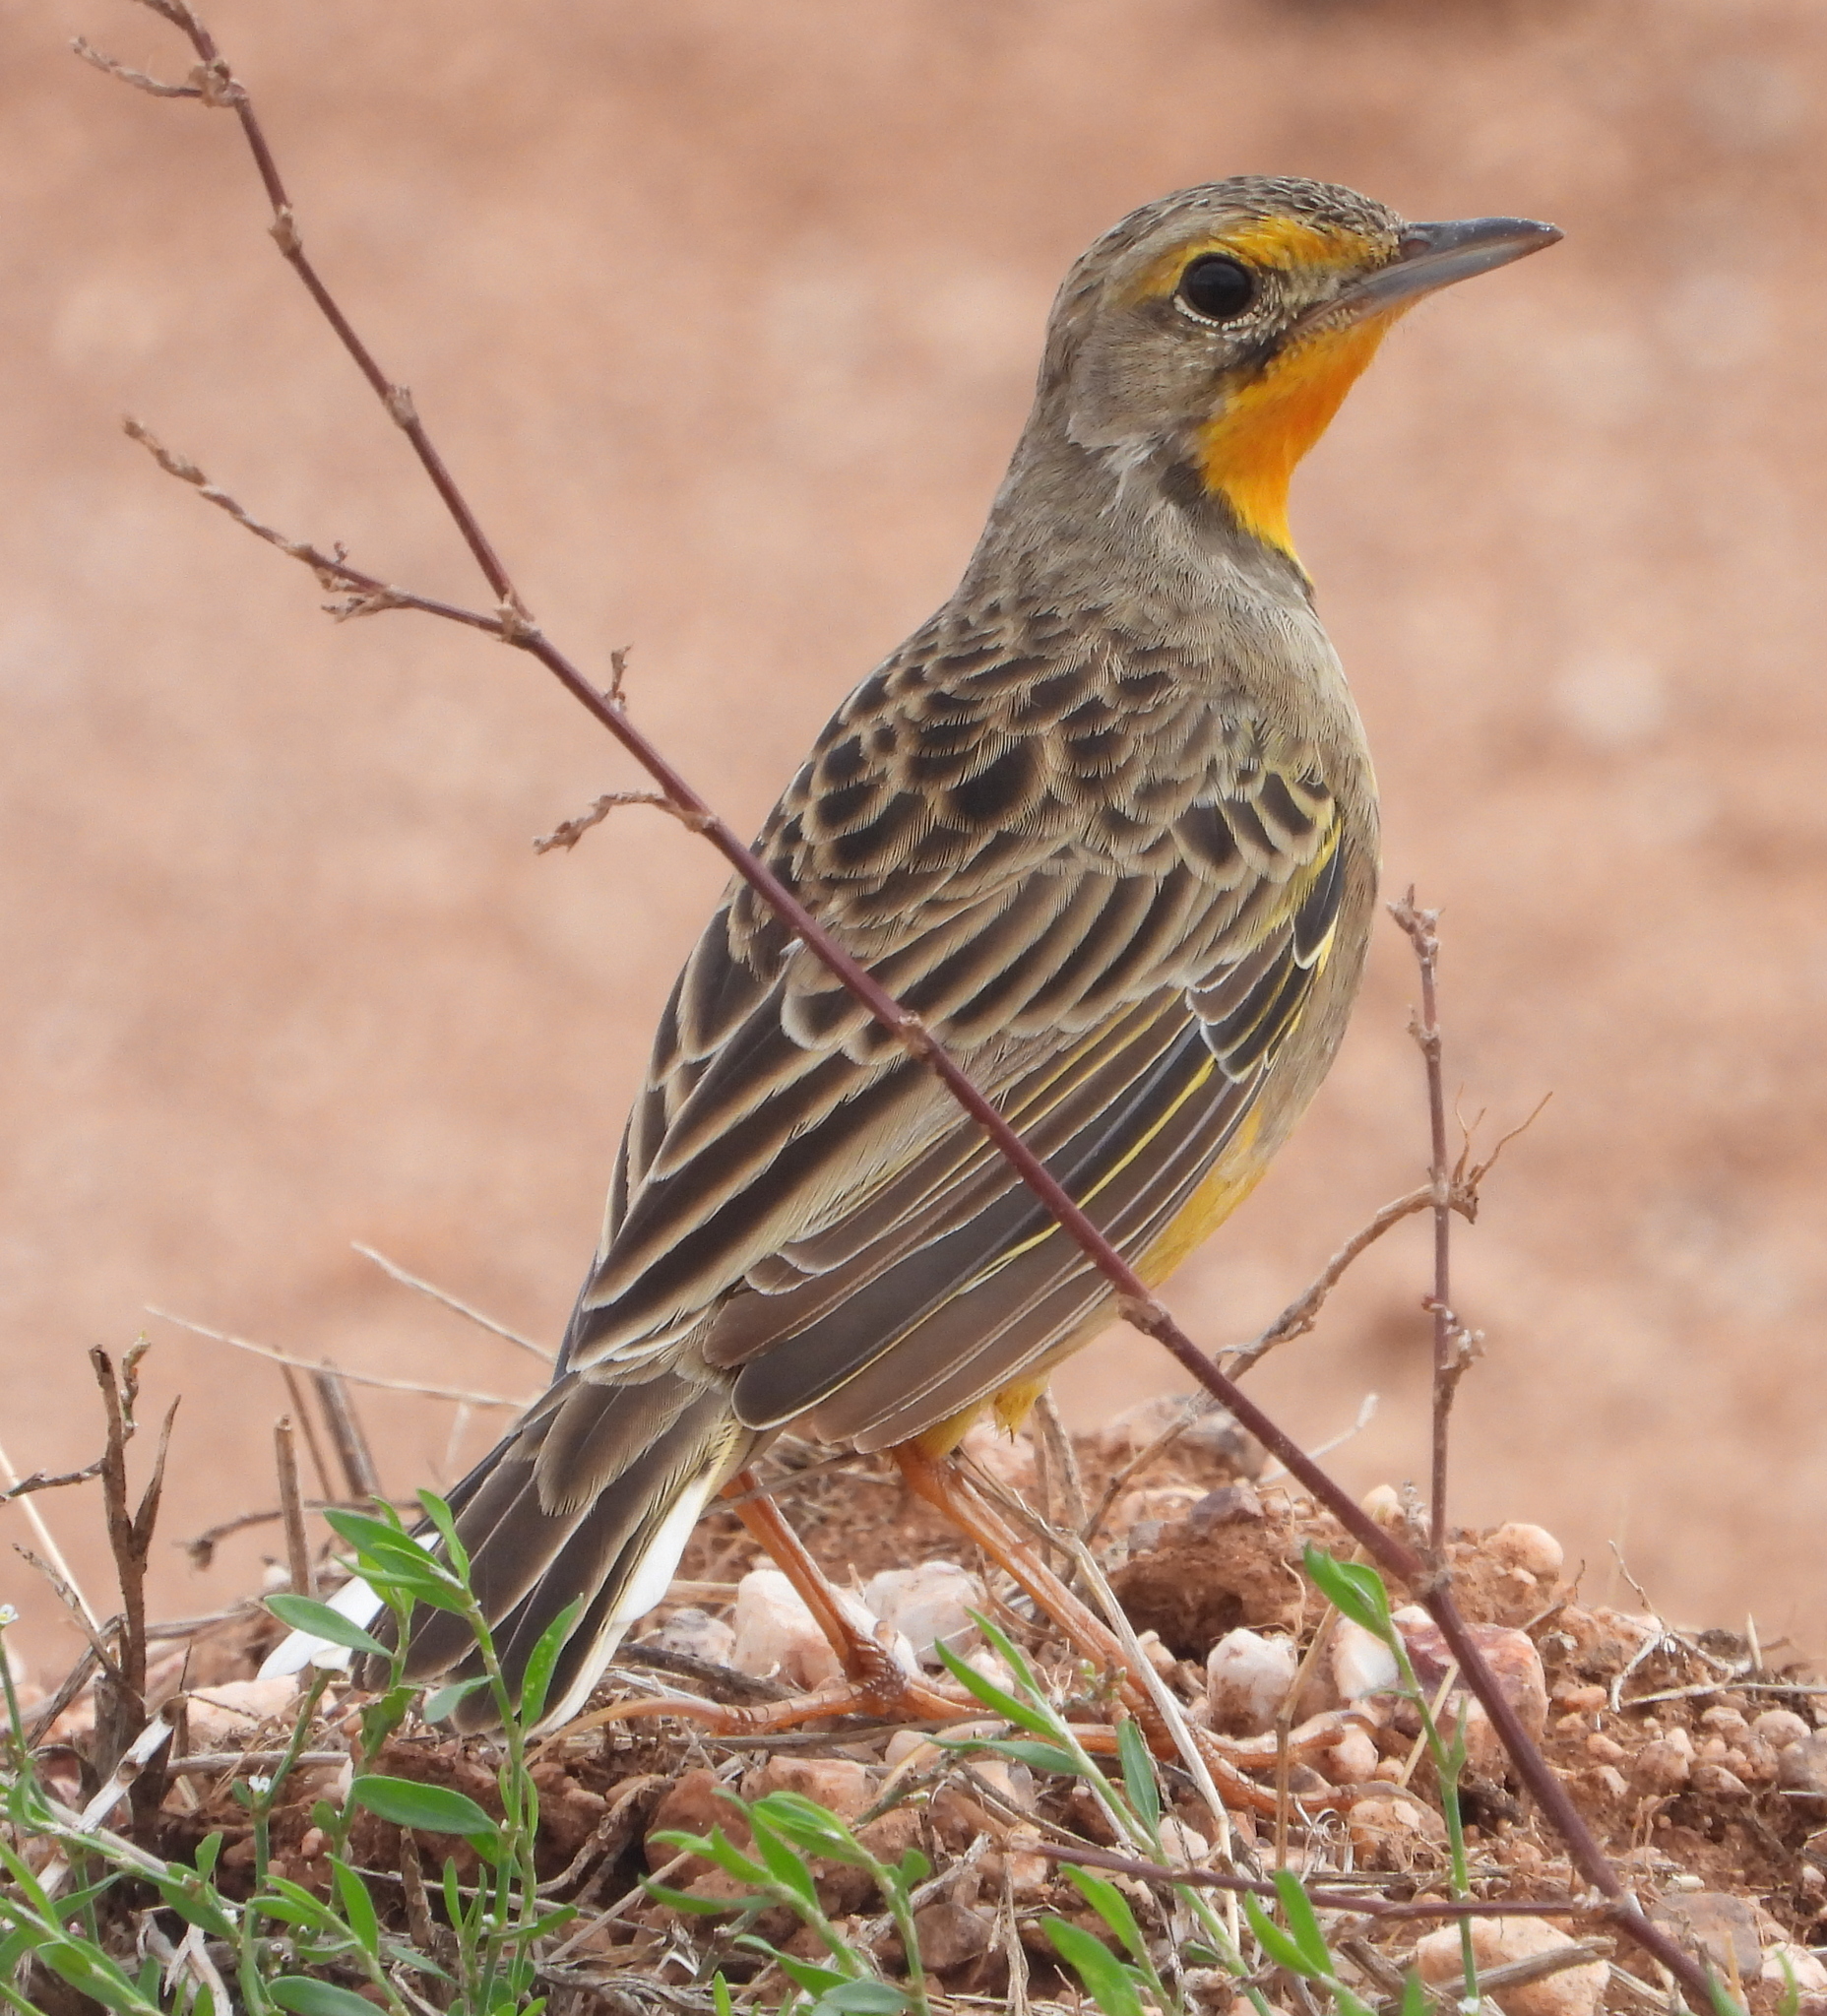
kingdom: Animalia
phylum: Chordata
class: Aves
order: Passeriformes
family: Motacillidae
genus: Macronyx
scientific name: Macronyx capensis
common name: Cape longclaw
